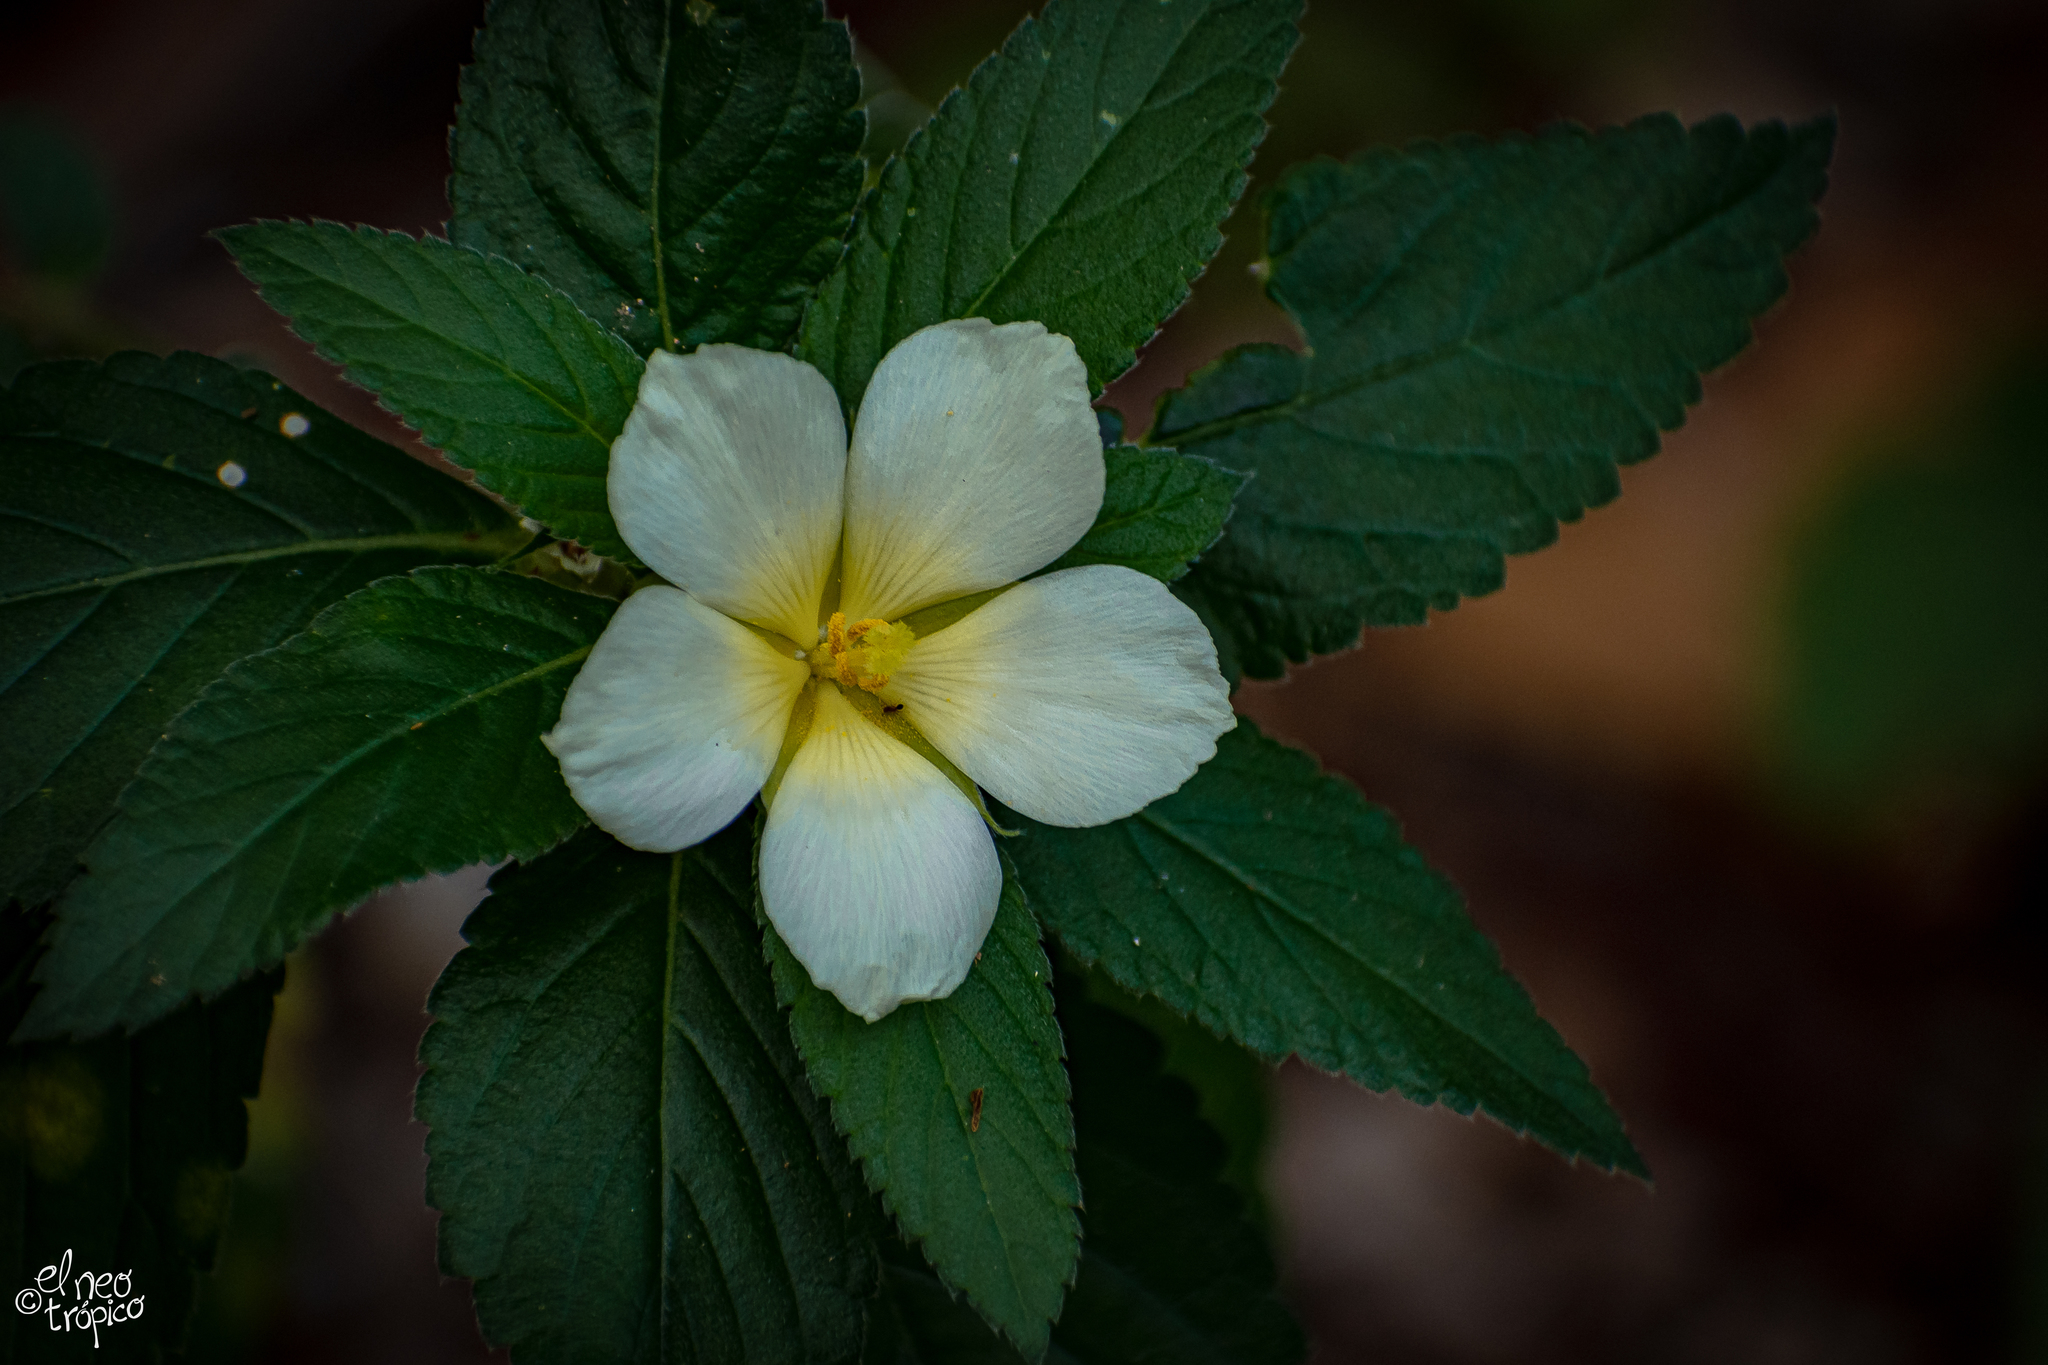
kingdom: Plantae
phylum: Tracheophyta
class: Magnoliopsida
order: Malpighiales
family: Turneraceae
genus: Turnera
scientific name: Turnera ulmifolia
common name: Ramgoat dashalong
